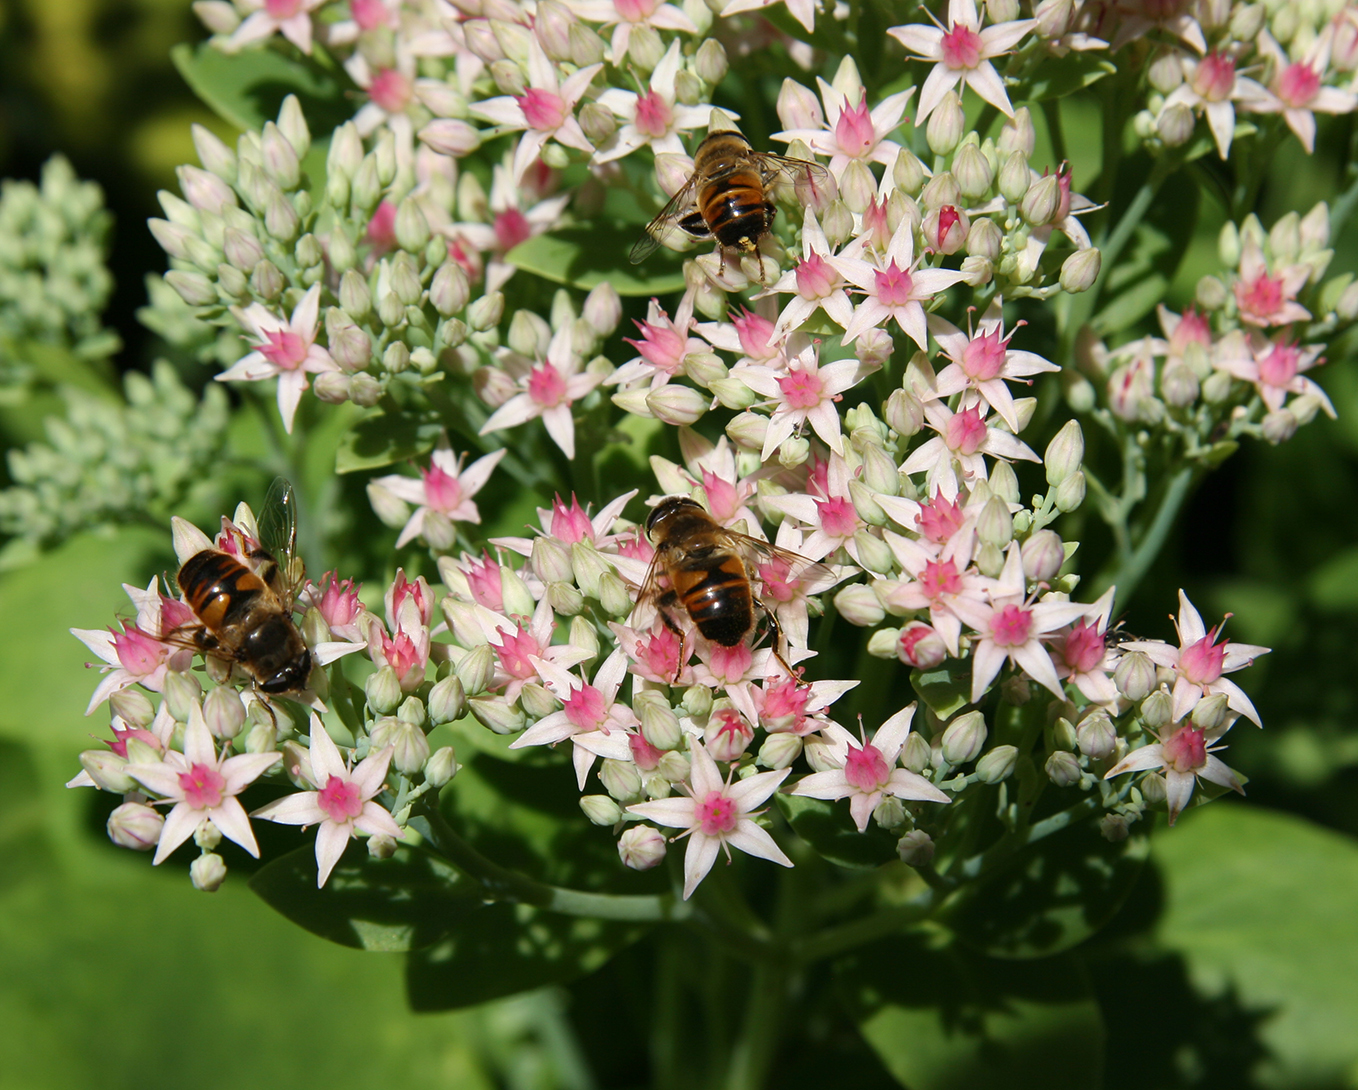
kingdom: Animalia
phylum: Arthropoda
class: Insecta
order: Diptera
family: Syrphidae
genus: Eristalis
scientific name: Eristalis tenax
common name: Drone fly
